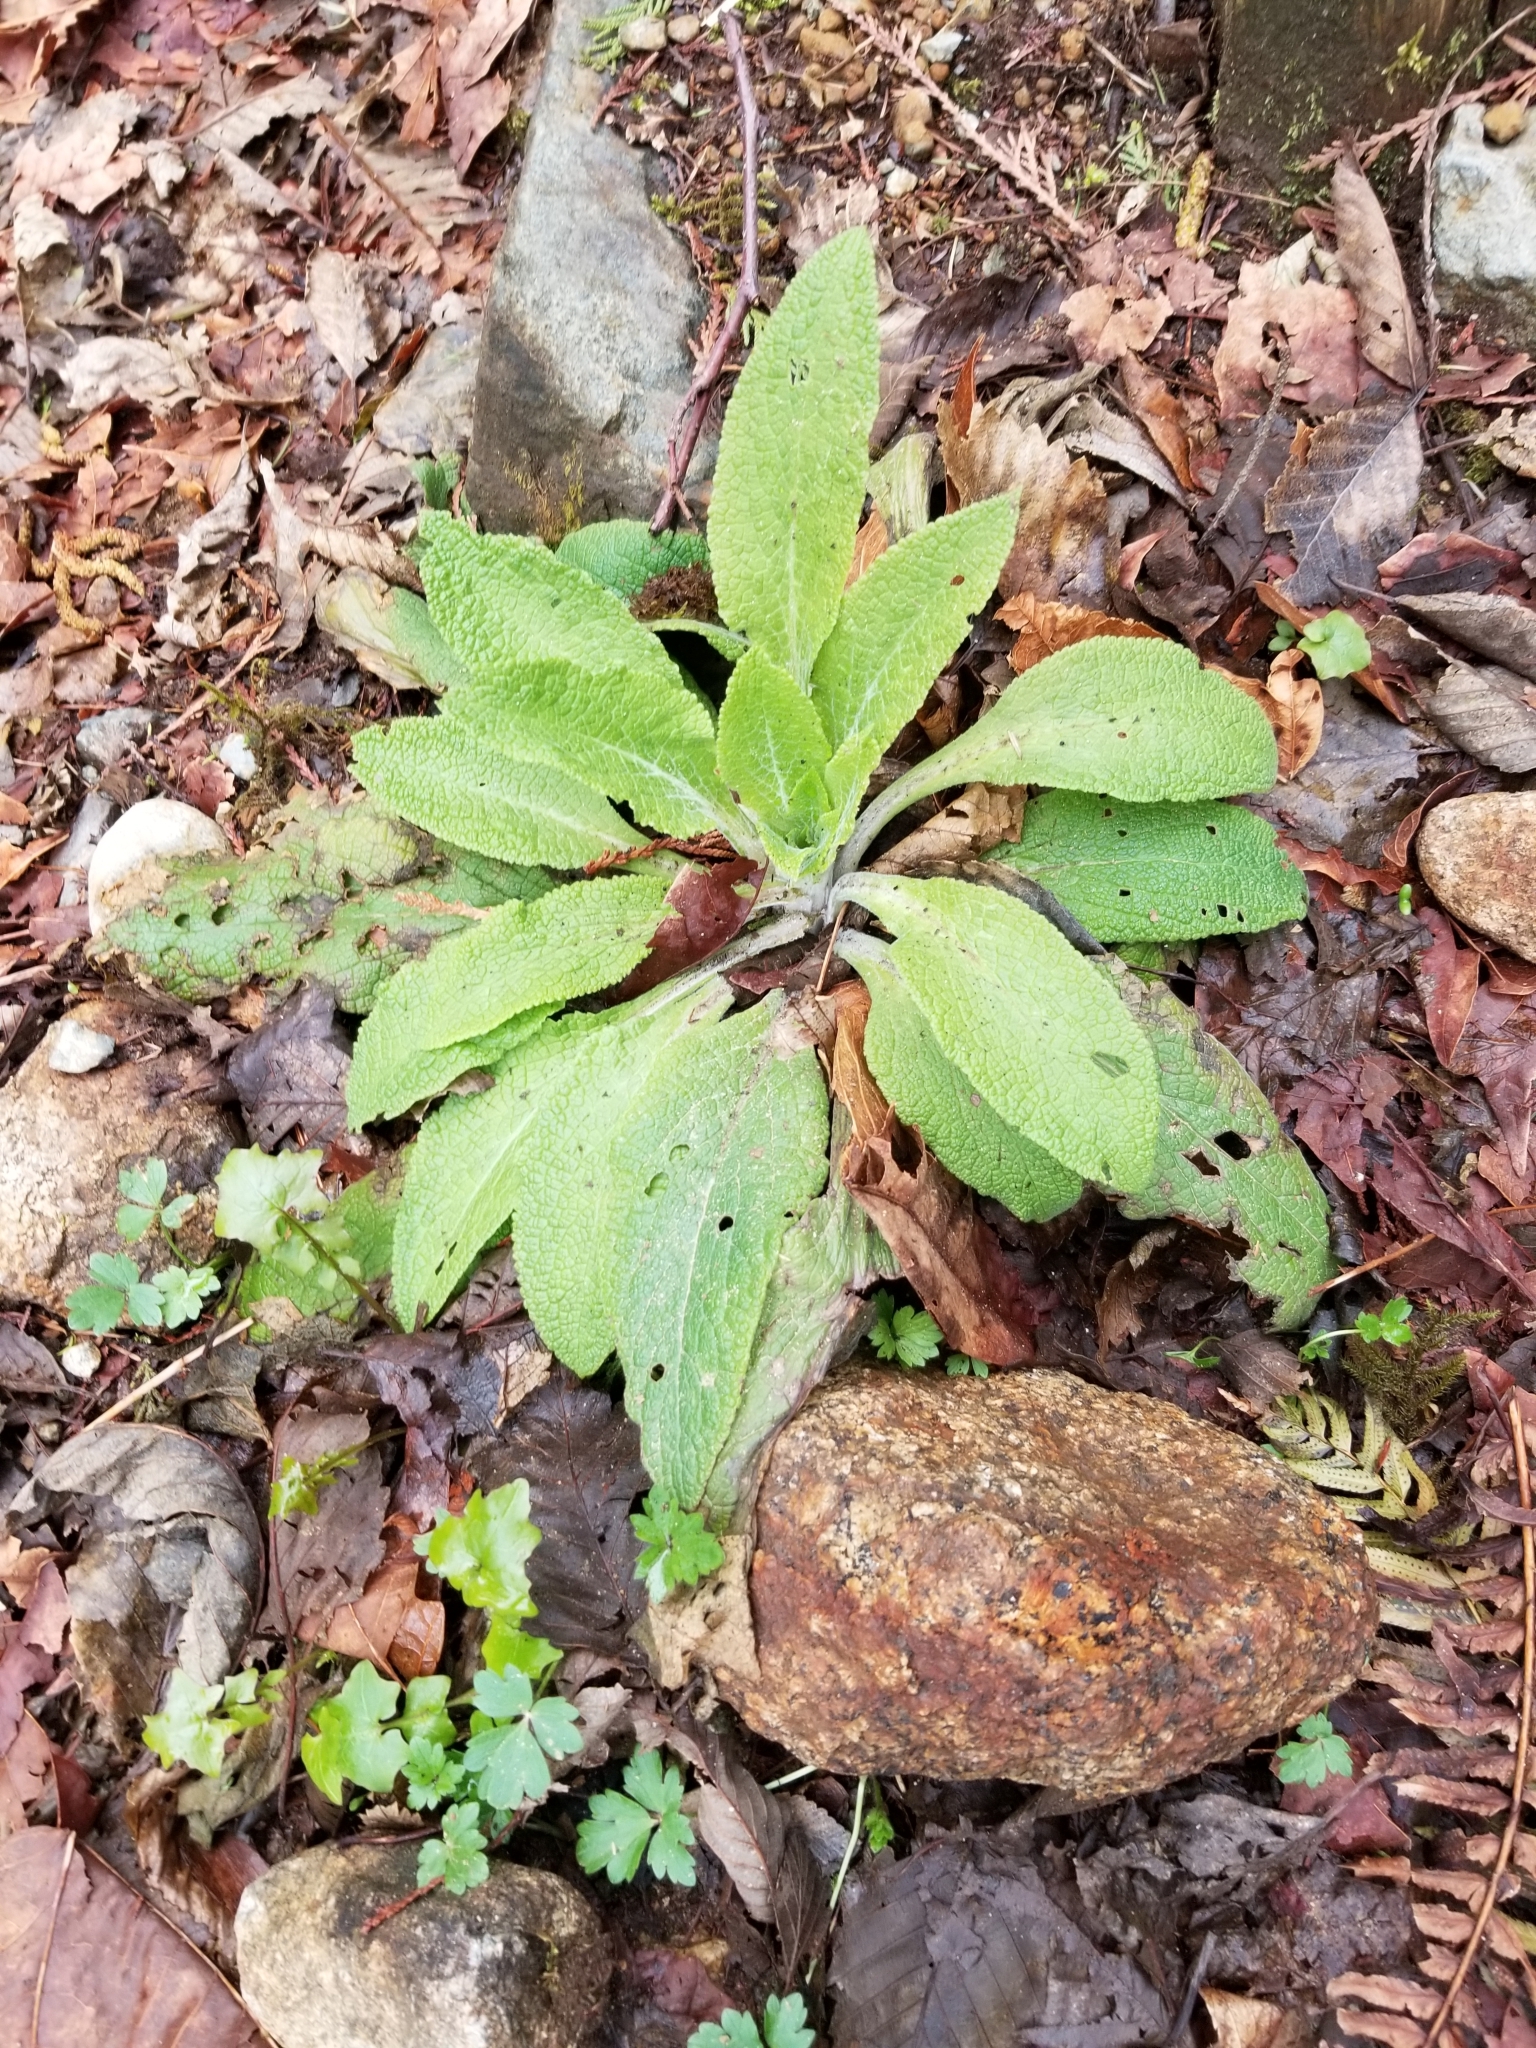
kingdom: Plantae
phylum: Tracheophyta
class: Magnoliopsida
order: Lamiales
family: Plantaginaceae
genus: Digitalis
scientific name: Digitalis purpurea
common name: Foxglove
